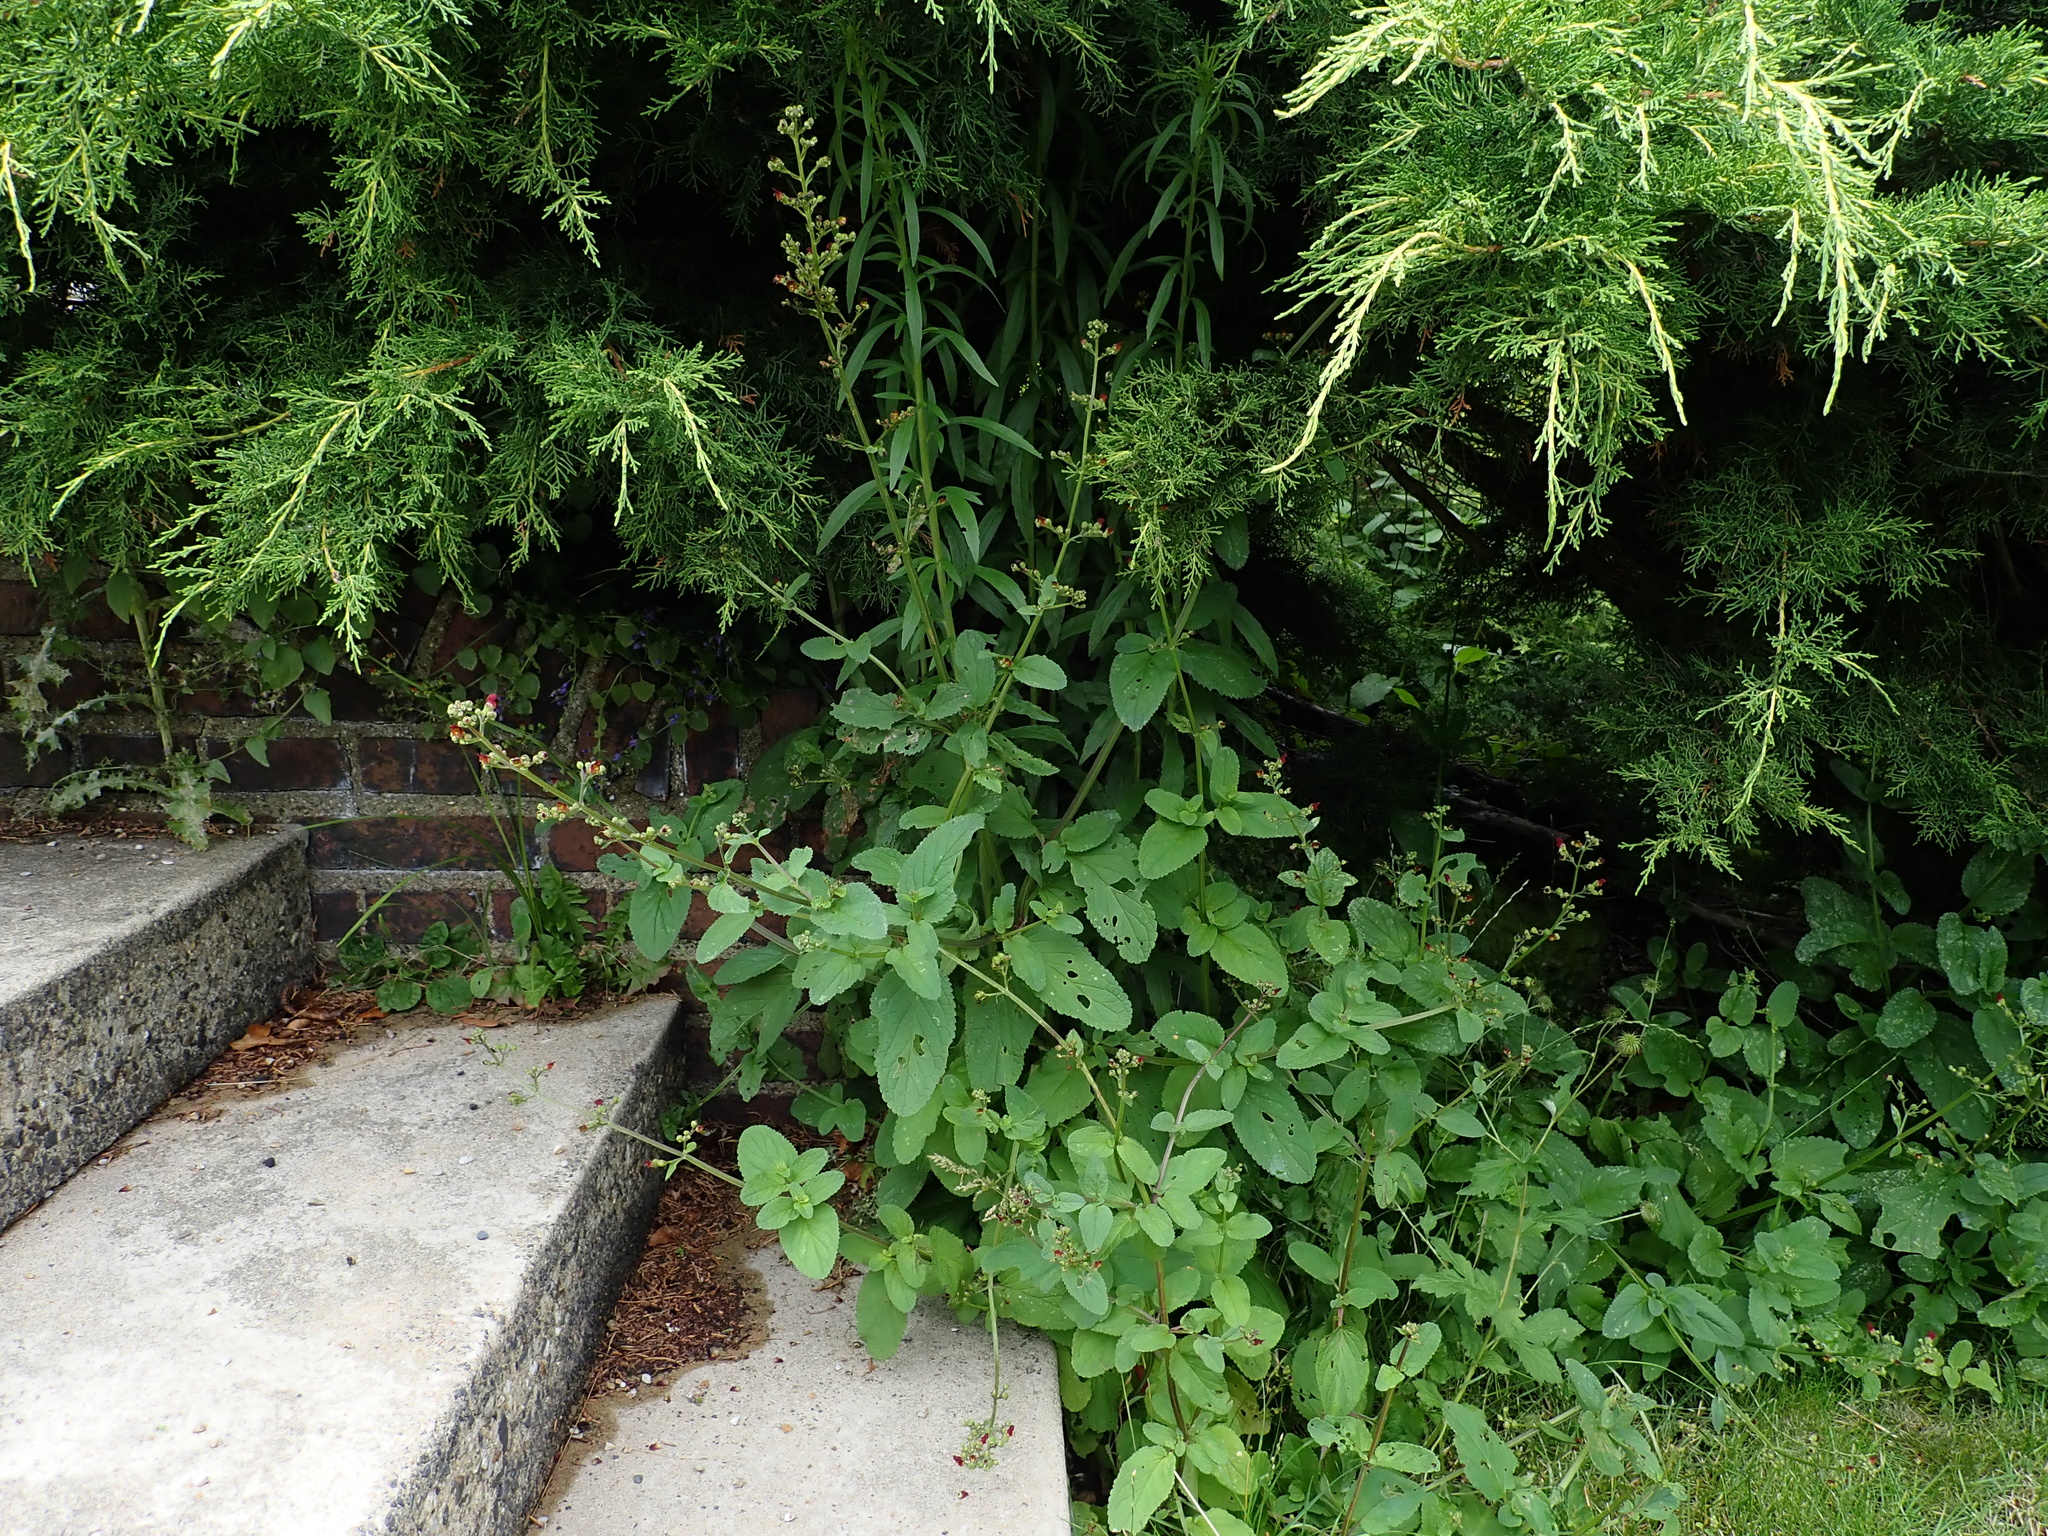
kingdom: Plantae
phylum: Tracheophyta
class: Magnoliopsida
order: Lamiales
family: Scrophulariaceae
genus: Scrophularia
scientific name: Scrophularia auriculata
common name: Water betony
